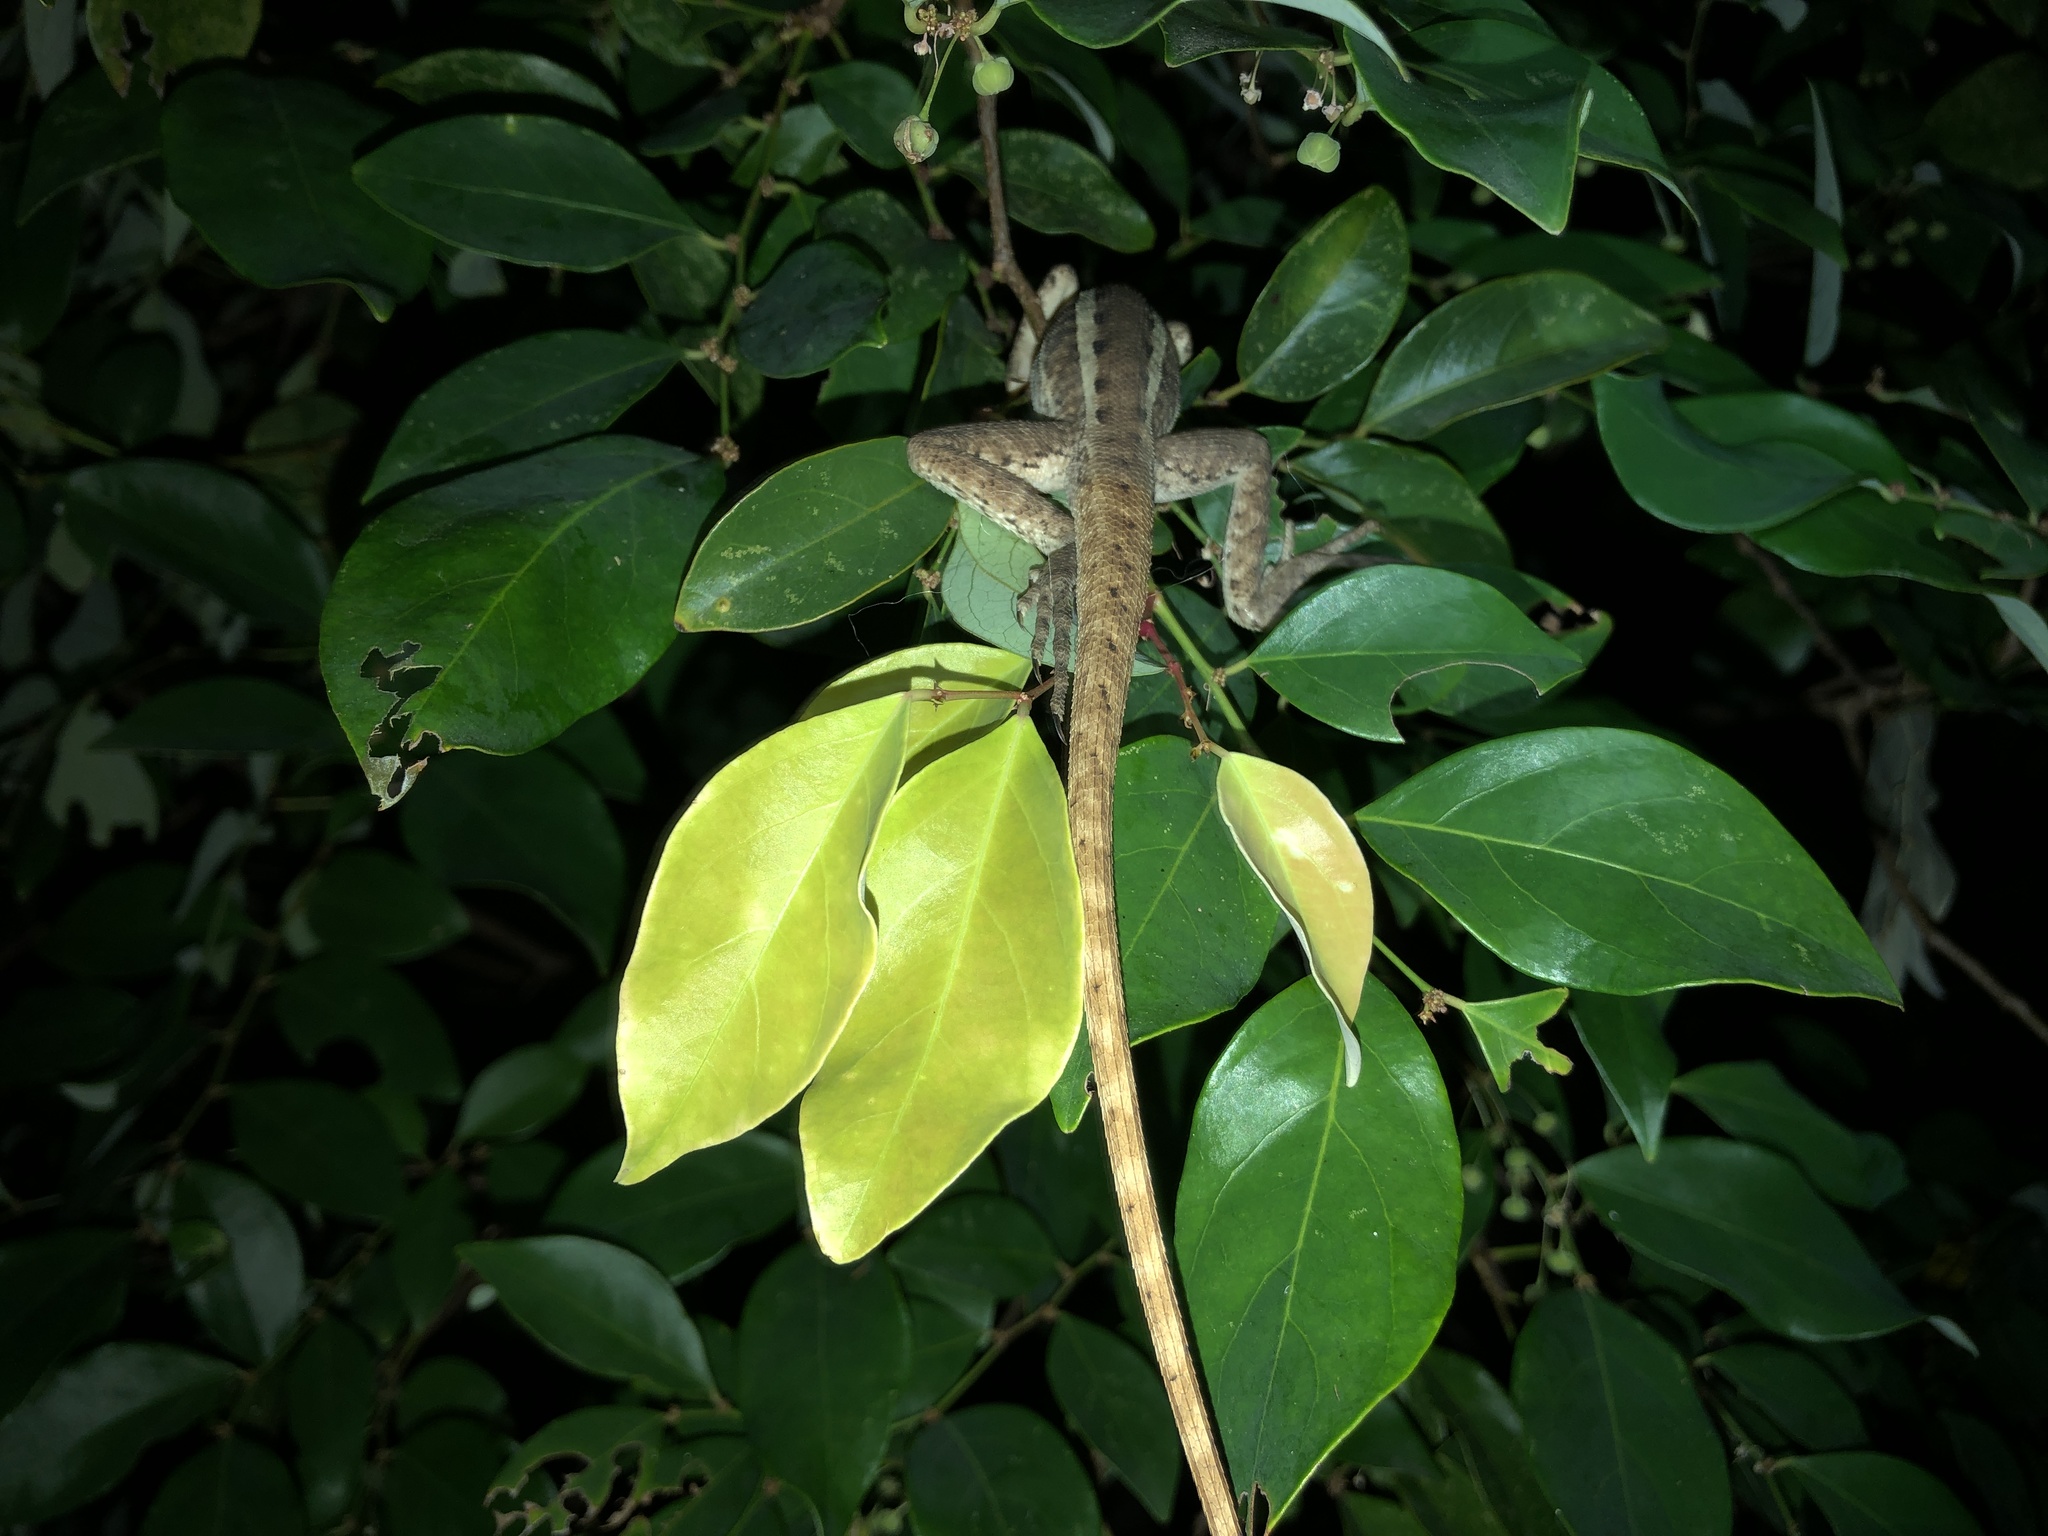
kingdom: Animalia
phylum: Chordata
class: Squamata
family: Agamidae
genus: Lophognathus
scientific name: Lophognathus horneri
